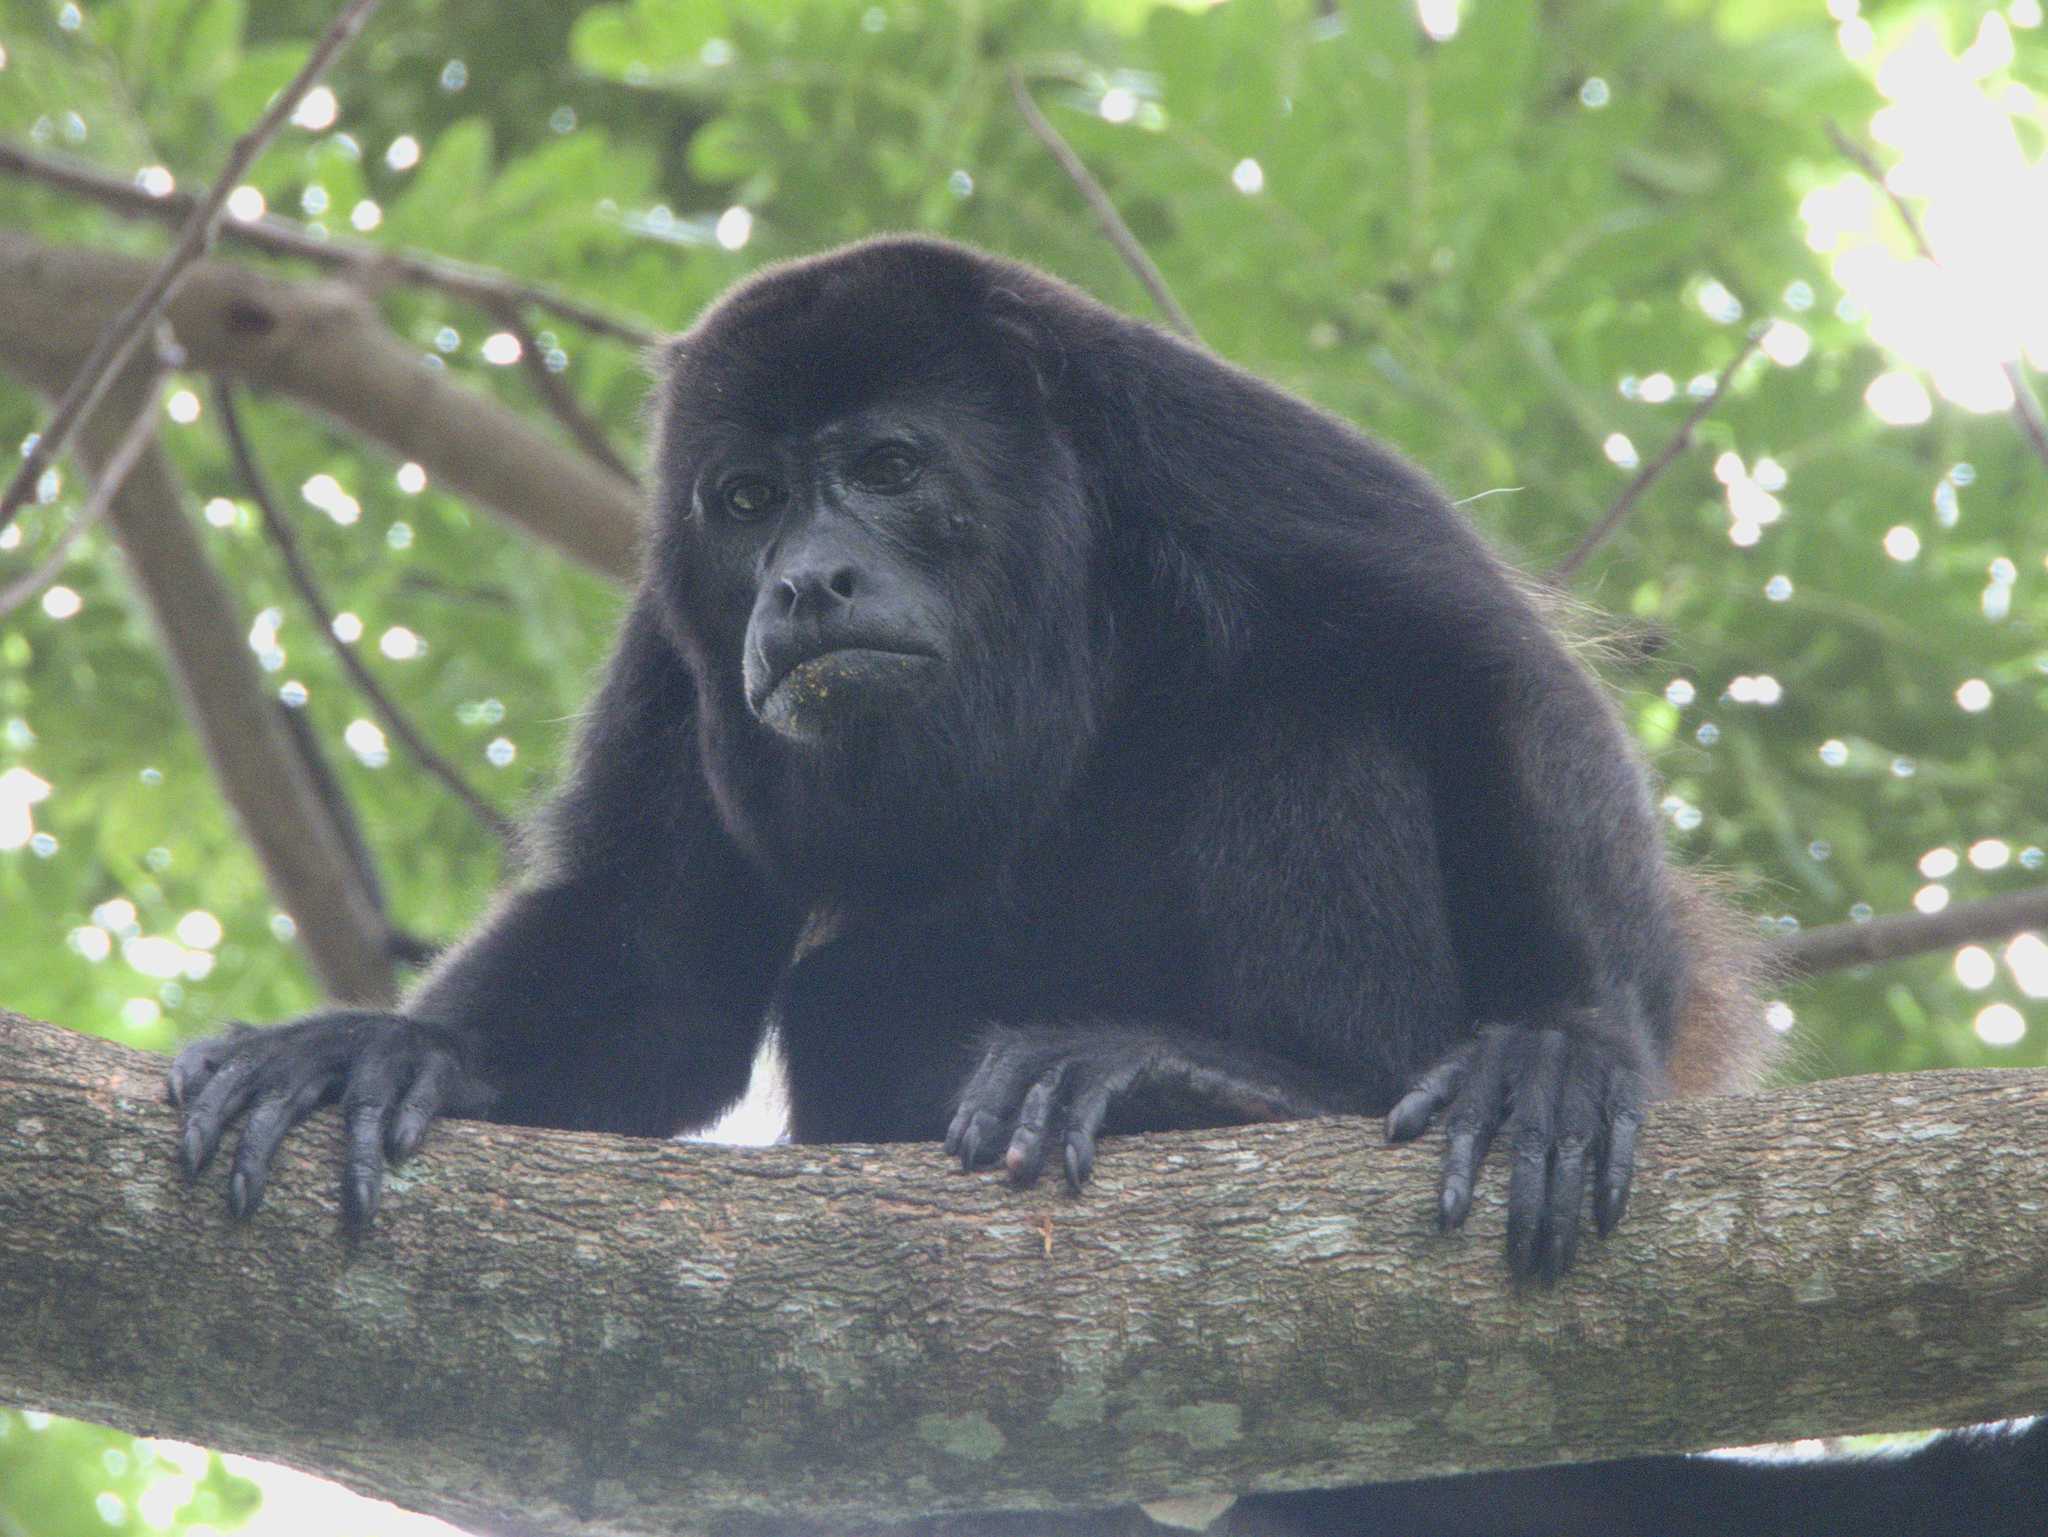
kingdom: Animalia
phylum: Chordata
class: Mammalia
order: Primates
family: Atelidae
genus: Alouatta
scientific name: Alouatta palliata
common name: Mantled howler
